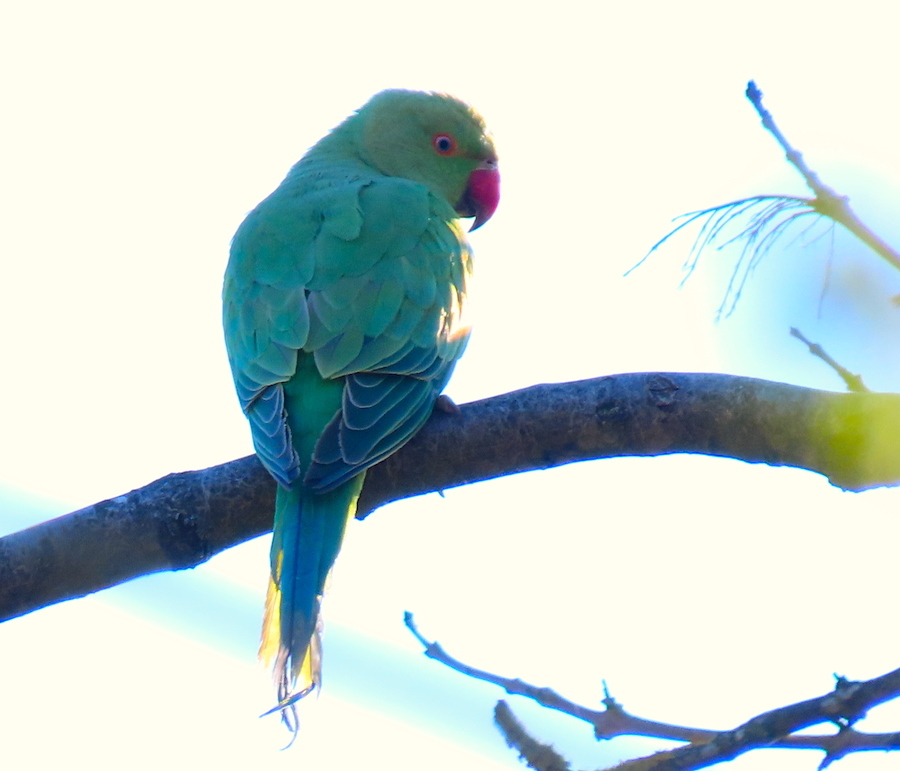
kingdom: Animalia
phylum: Chordata
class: Aves
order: Psittaciformes
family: Psittacidae
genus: Psittacula
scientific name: Psittacula krameri
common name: Rose-ringed parakeet
